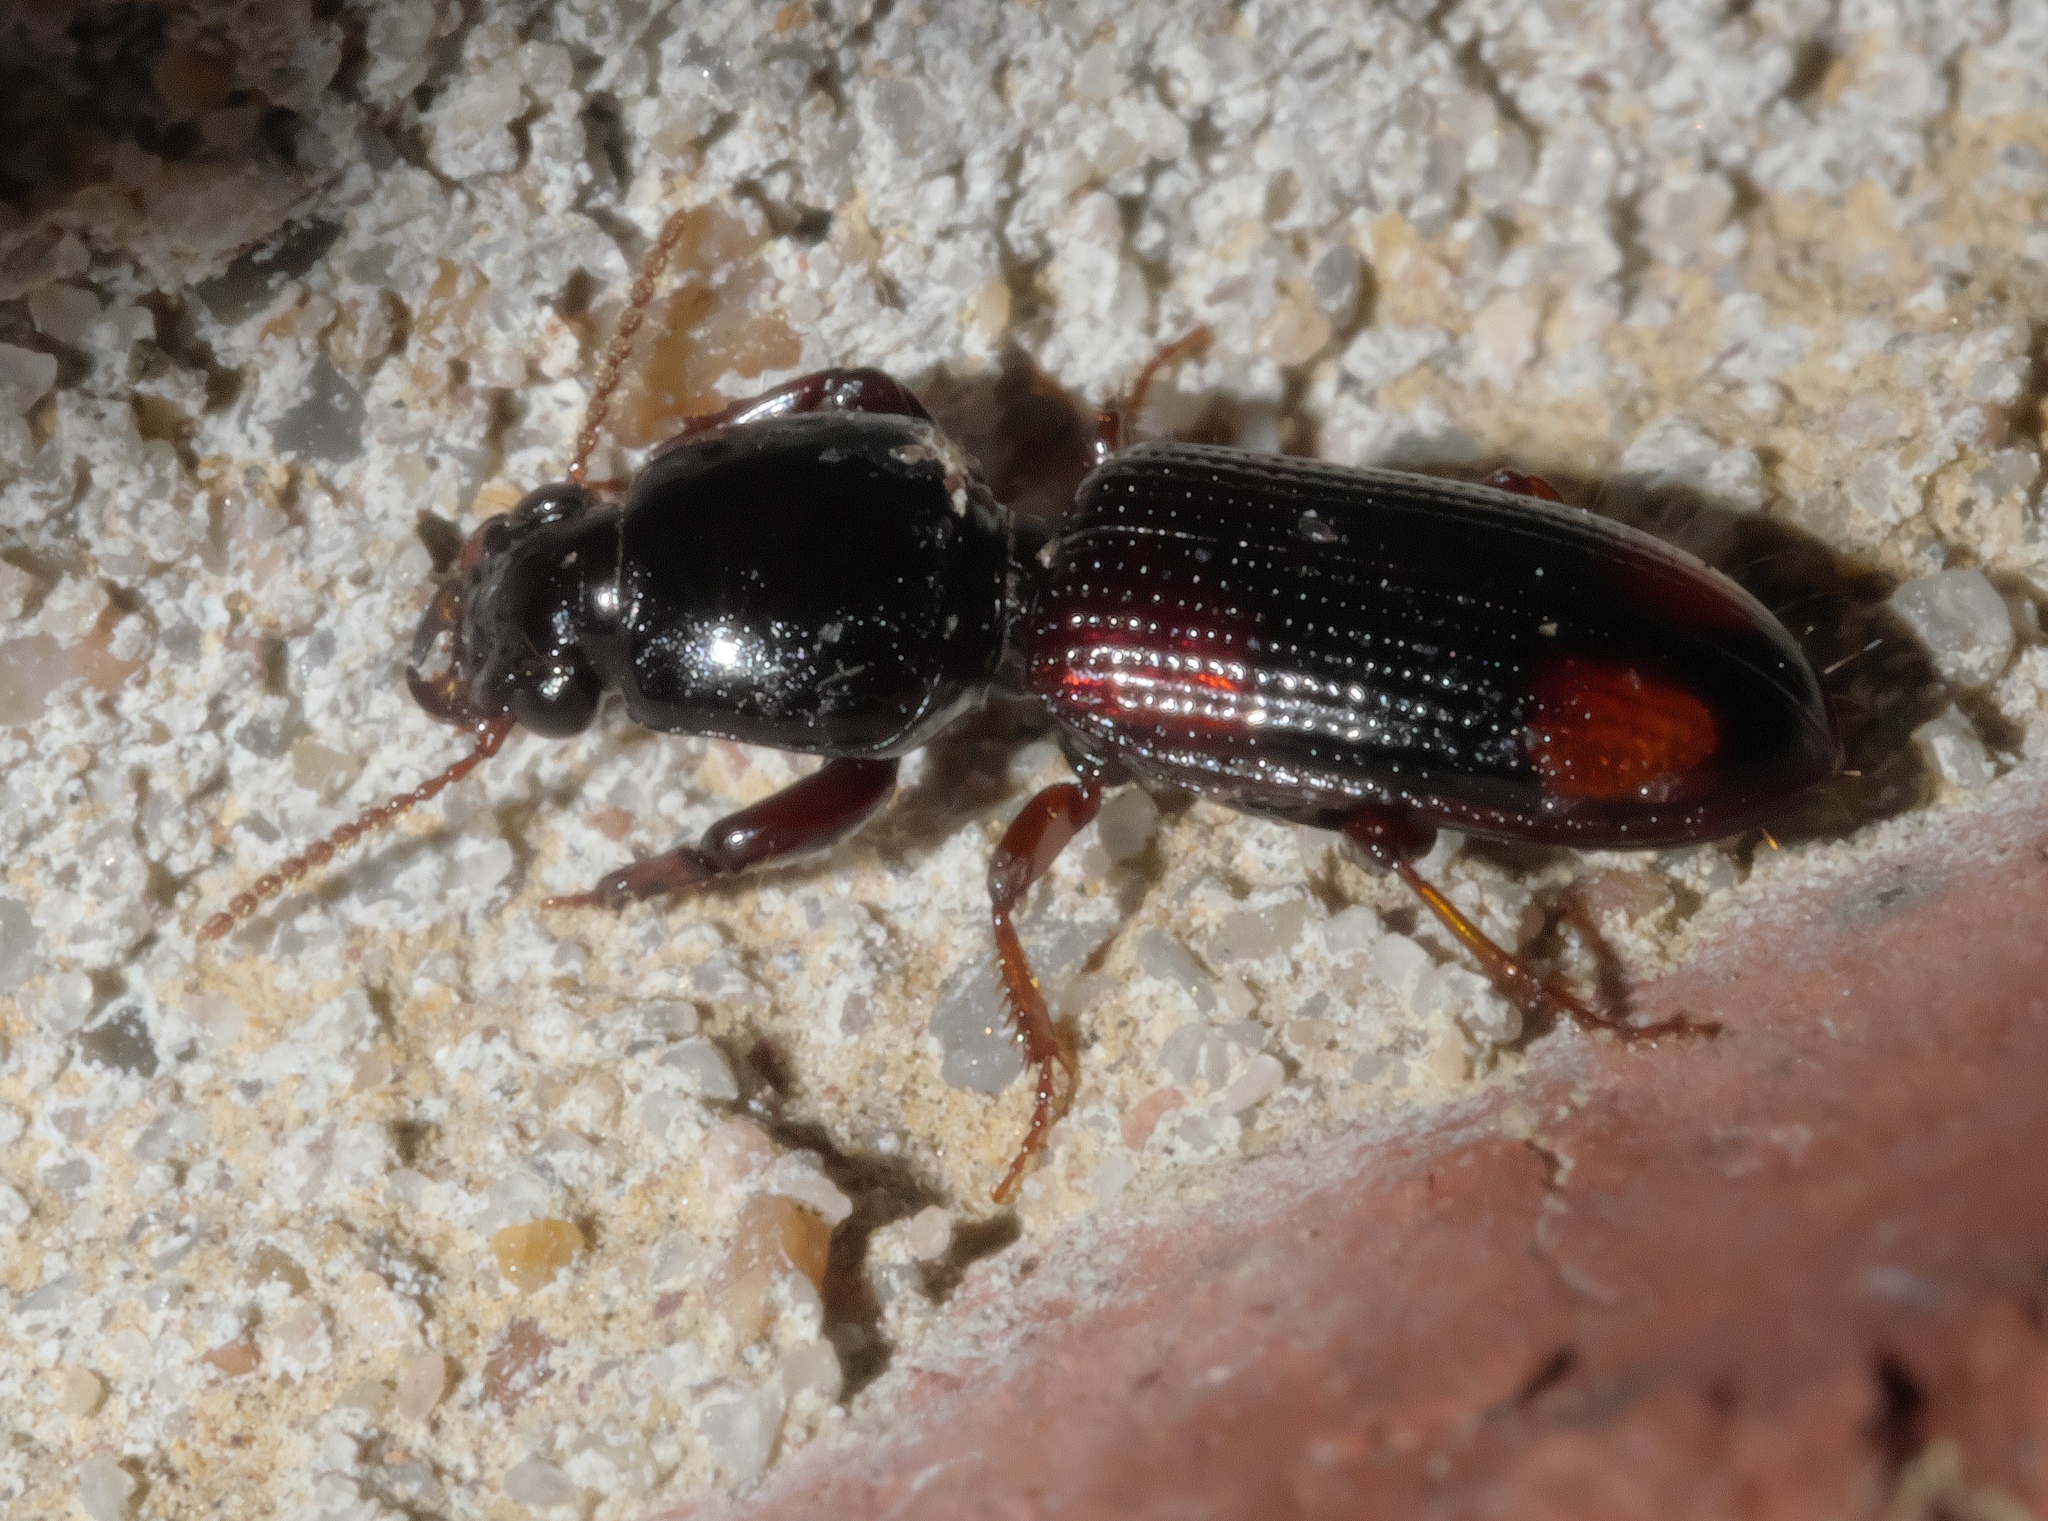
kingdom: Animalia
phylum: Arthropoda
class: Insecta
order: Coleoptera
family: Carabidae
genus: Clivina
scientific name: Clivina bipustulata
